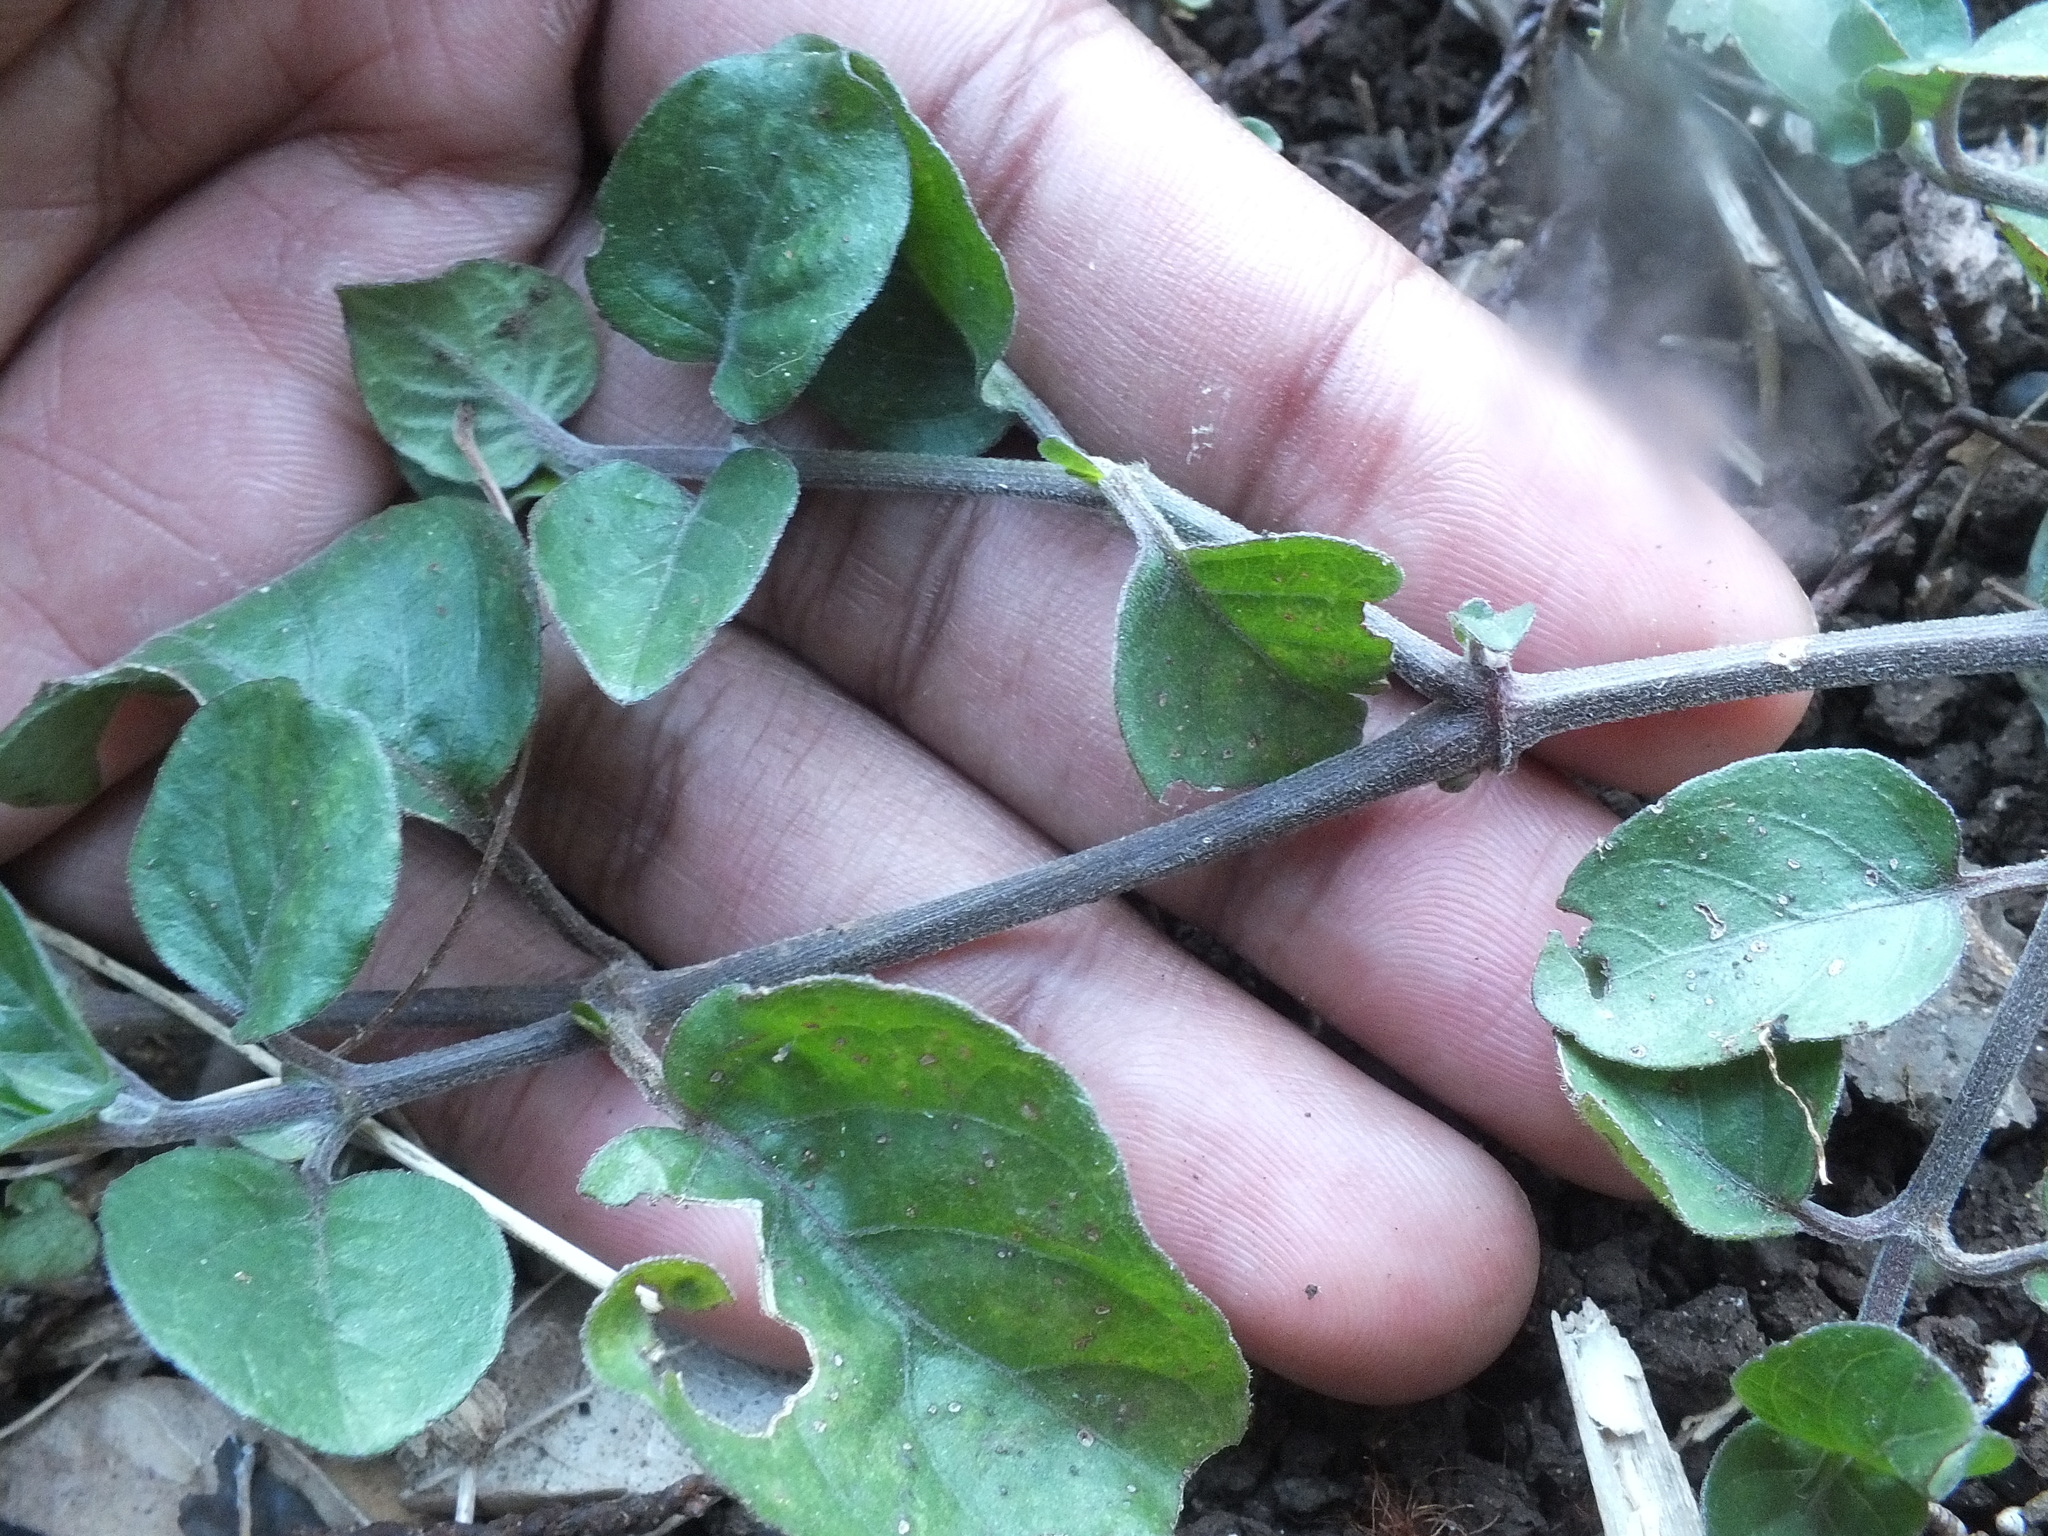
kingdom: Plantae
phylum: Tracheophyta
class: Magnoliopsida
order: Lamiales
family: Acanthaceae
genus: Asystasia
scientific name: Asystasia gangetica
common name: Chinese violet
